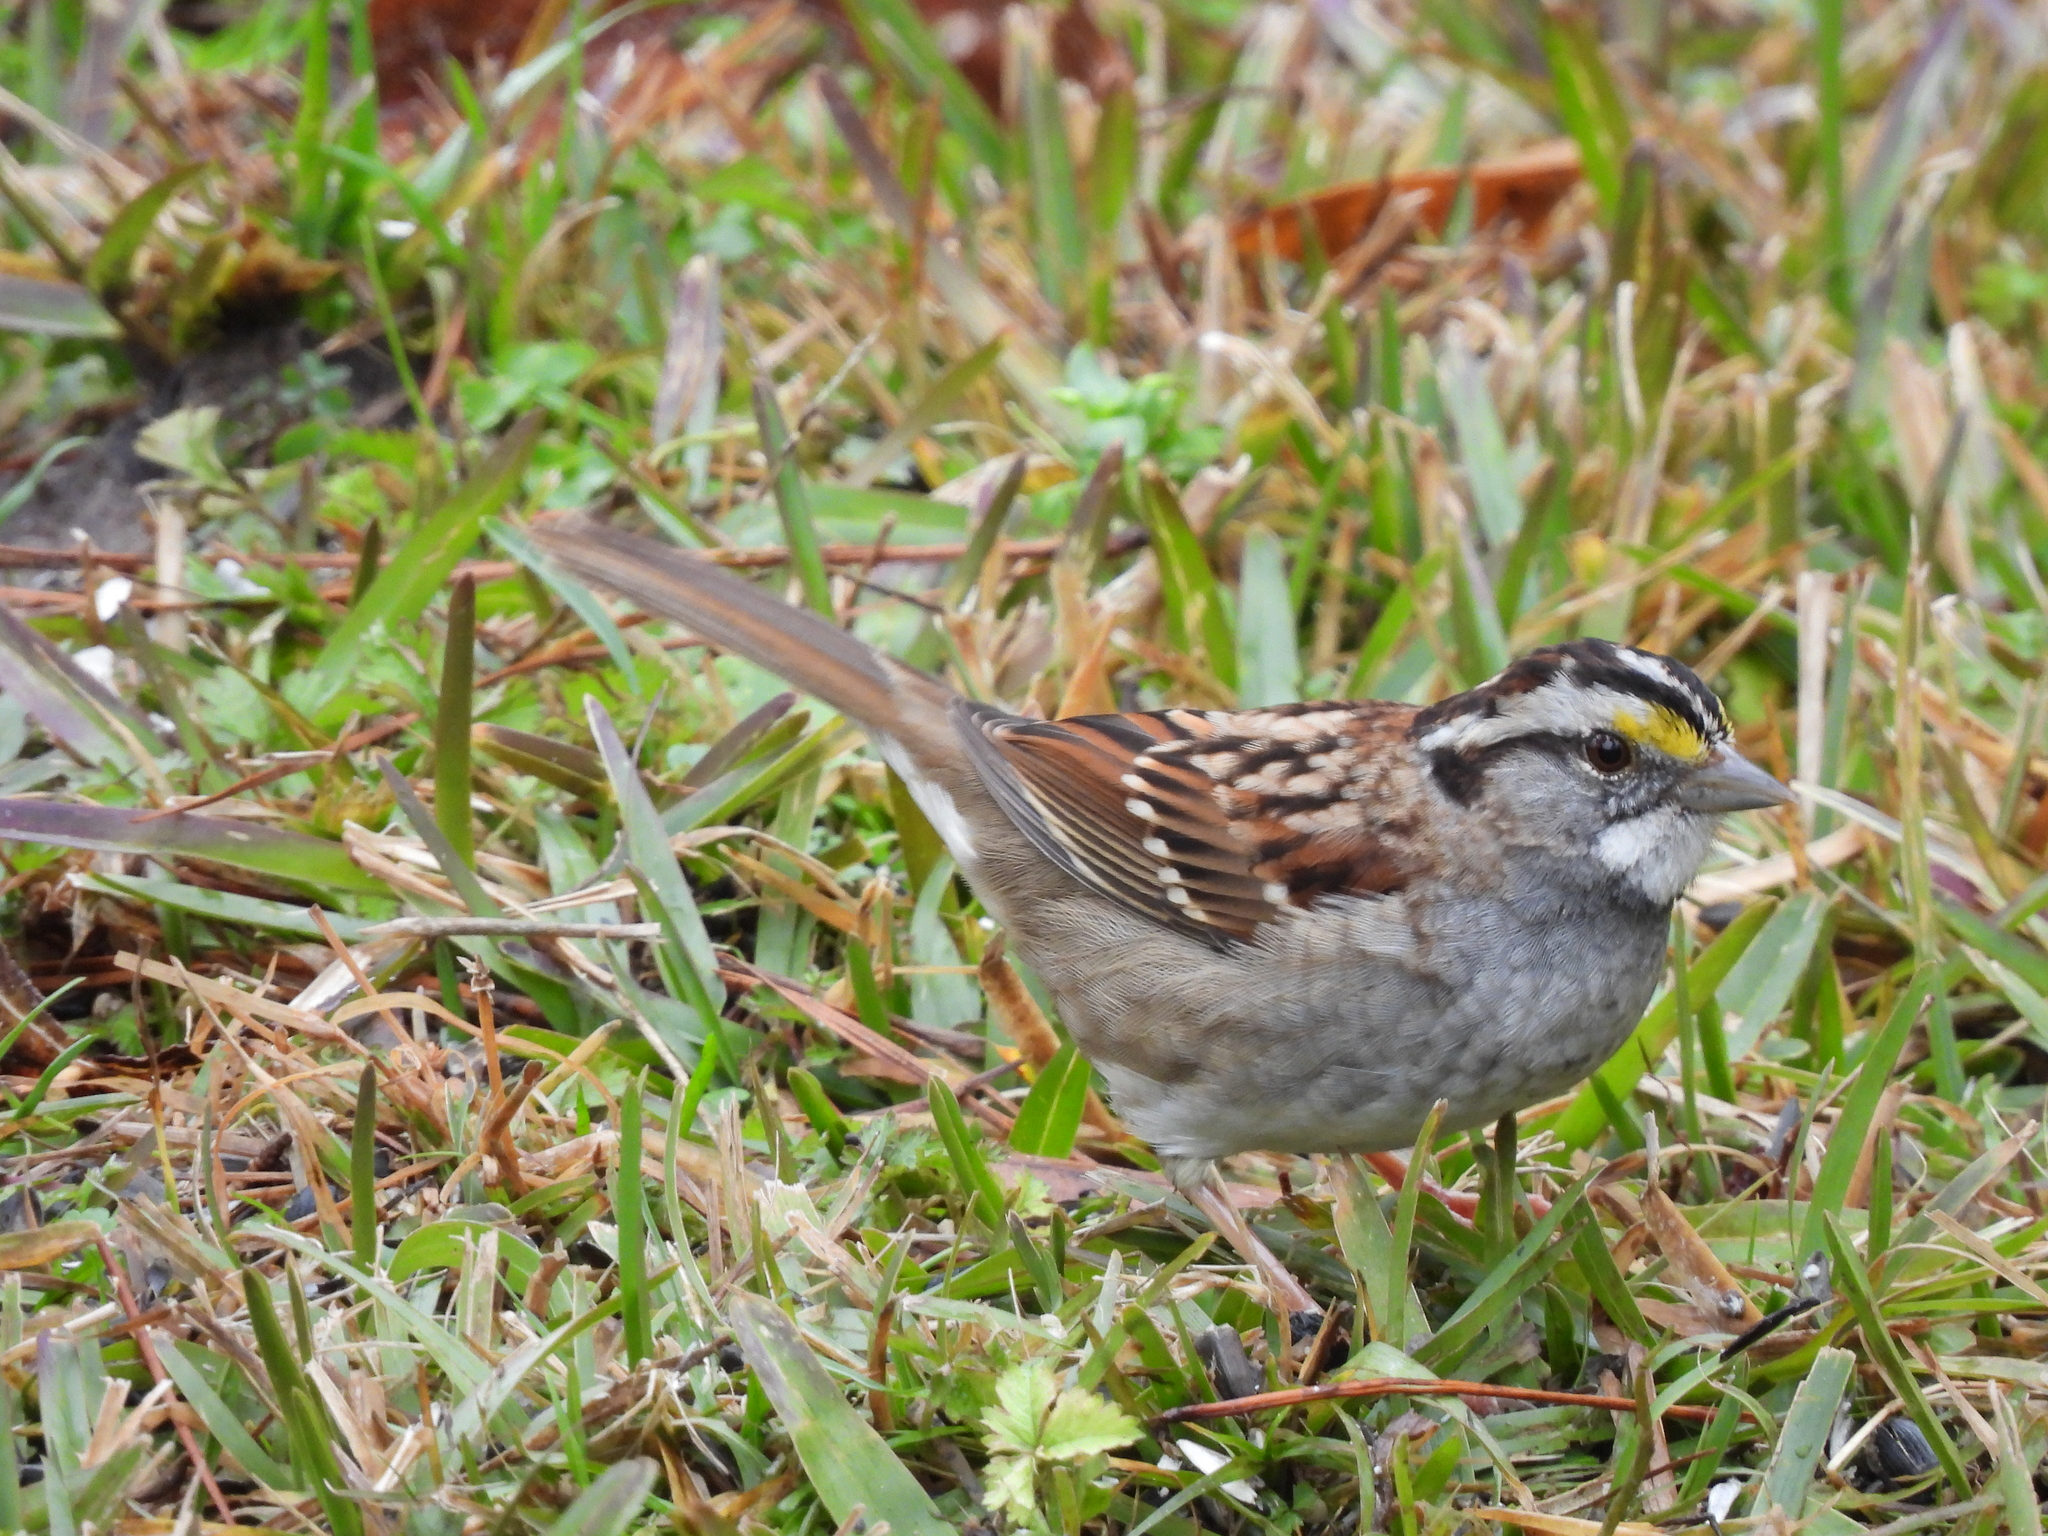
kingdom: Animalia
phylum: Chordata
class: Aves
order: Passeriformes
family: Passerellidae
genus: Zonotrichia
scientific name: Zonotrichia albicollis
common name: White-throated sparrow
